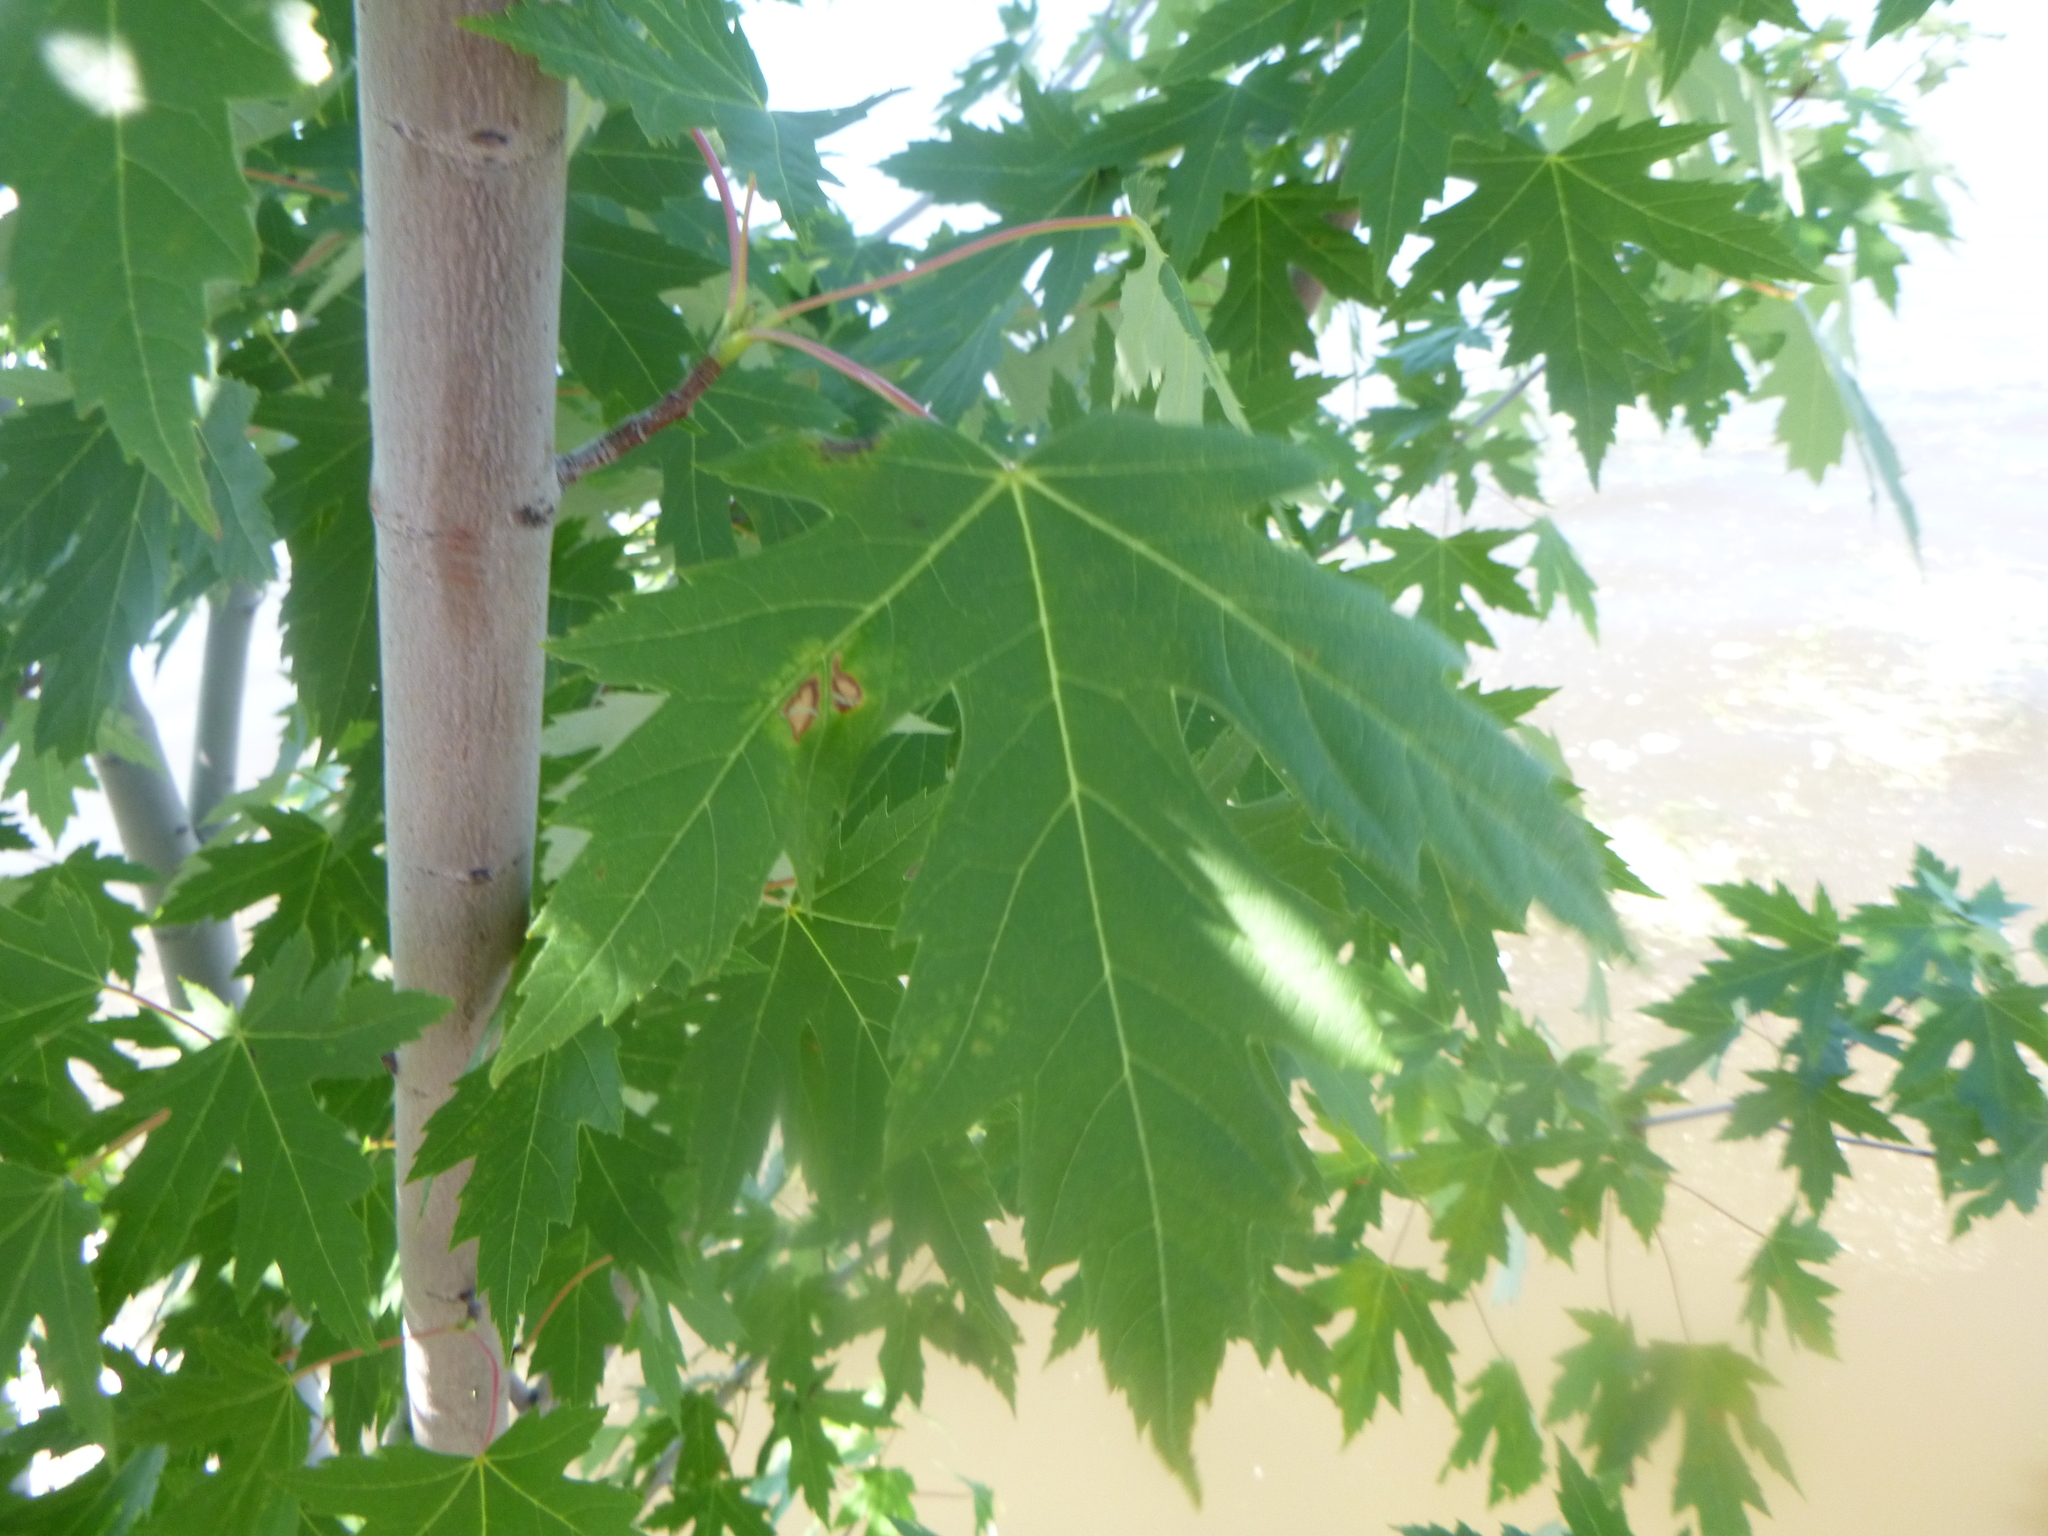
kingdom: Plantae
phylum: Tracheophyta
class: Magnoliopsida
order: Sapindales
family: Sapindaceae
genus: Acer
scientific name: Acer saccharinum
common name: Silver maple
